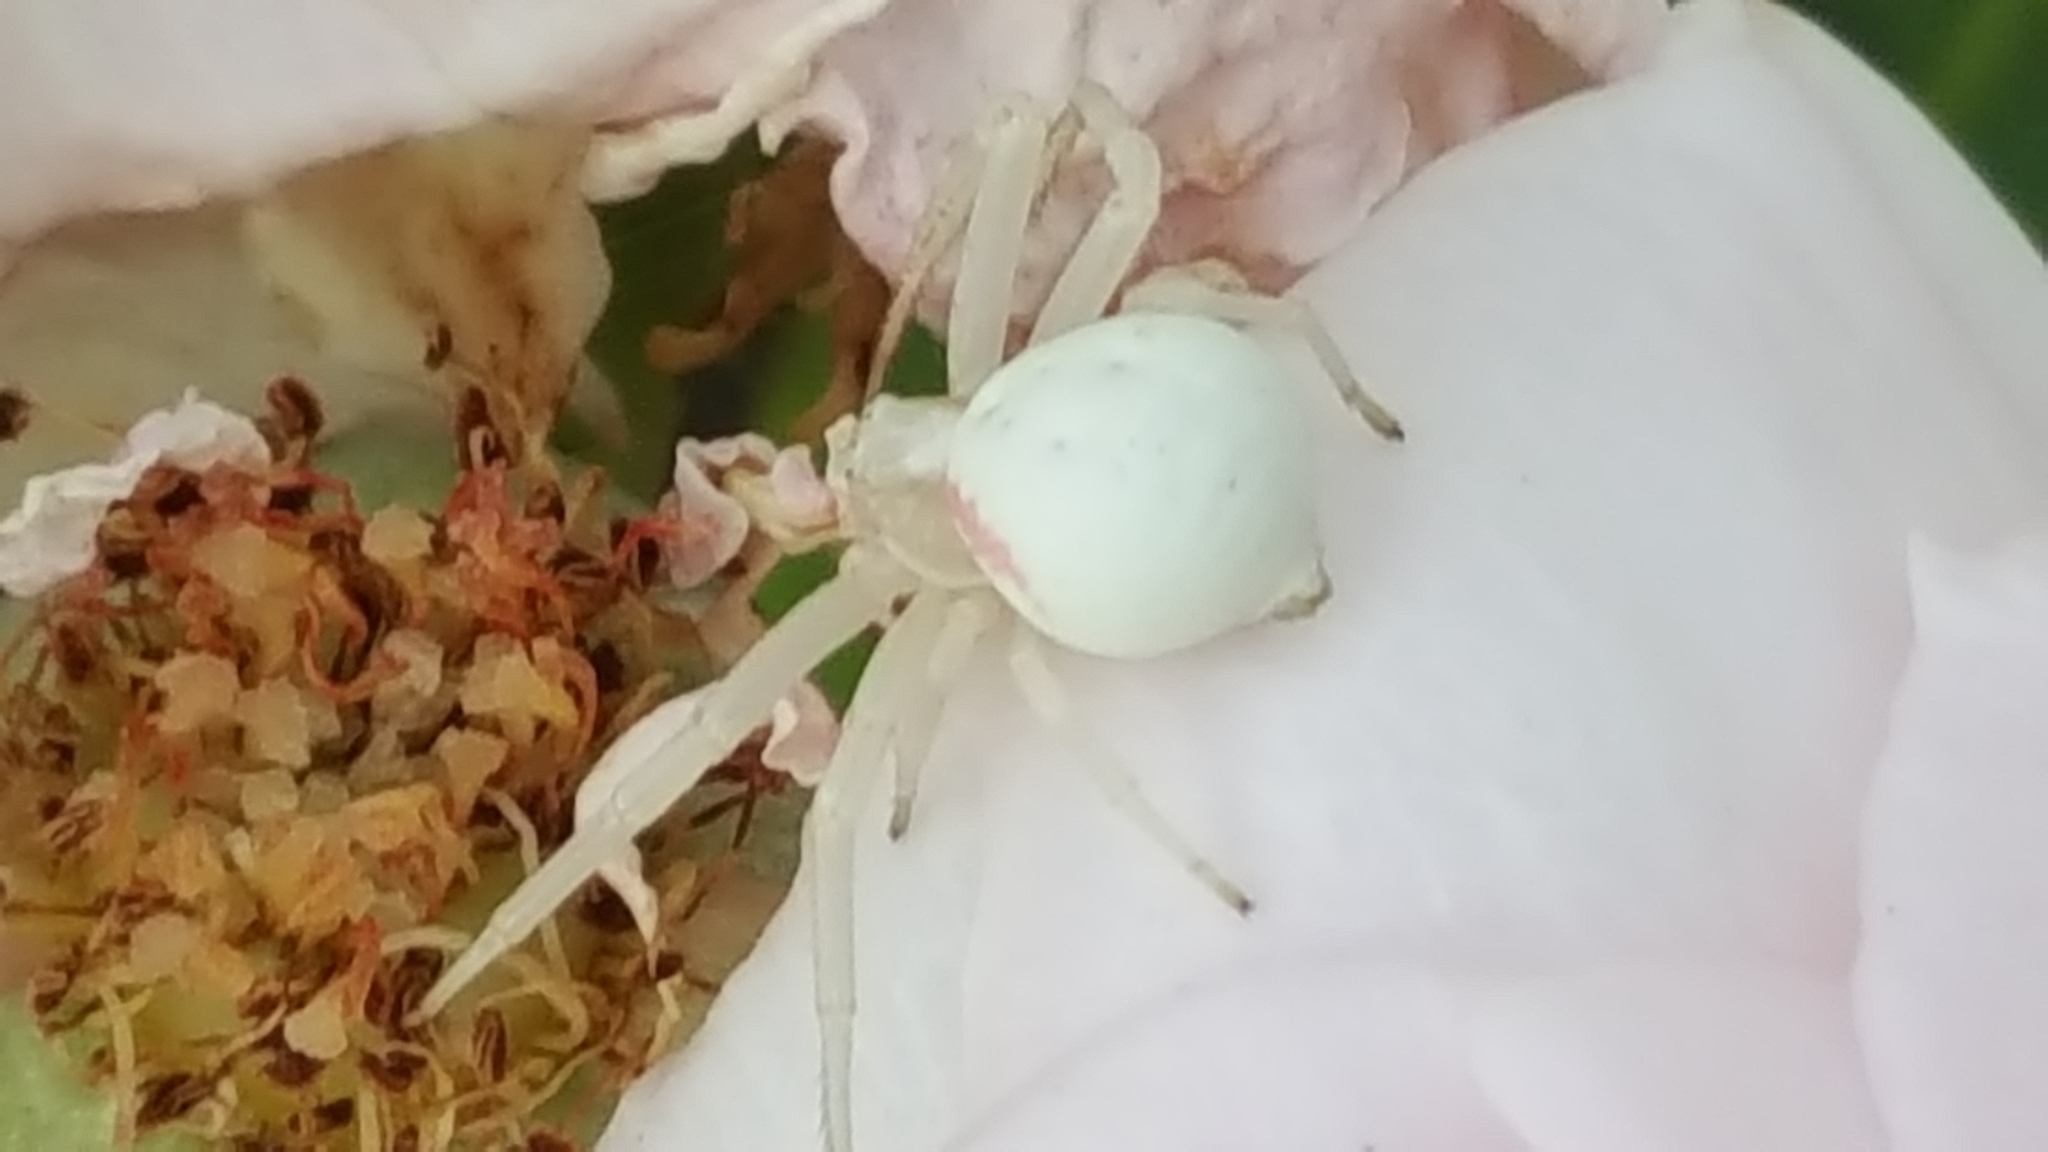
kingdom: Animalia
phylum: Arthropoda
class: Arachnida
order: Araneae
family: Thomisidae
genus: Misumena
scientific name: Misumena vatia
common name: Goldenrod crab spider
